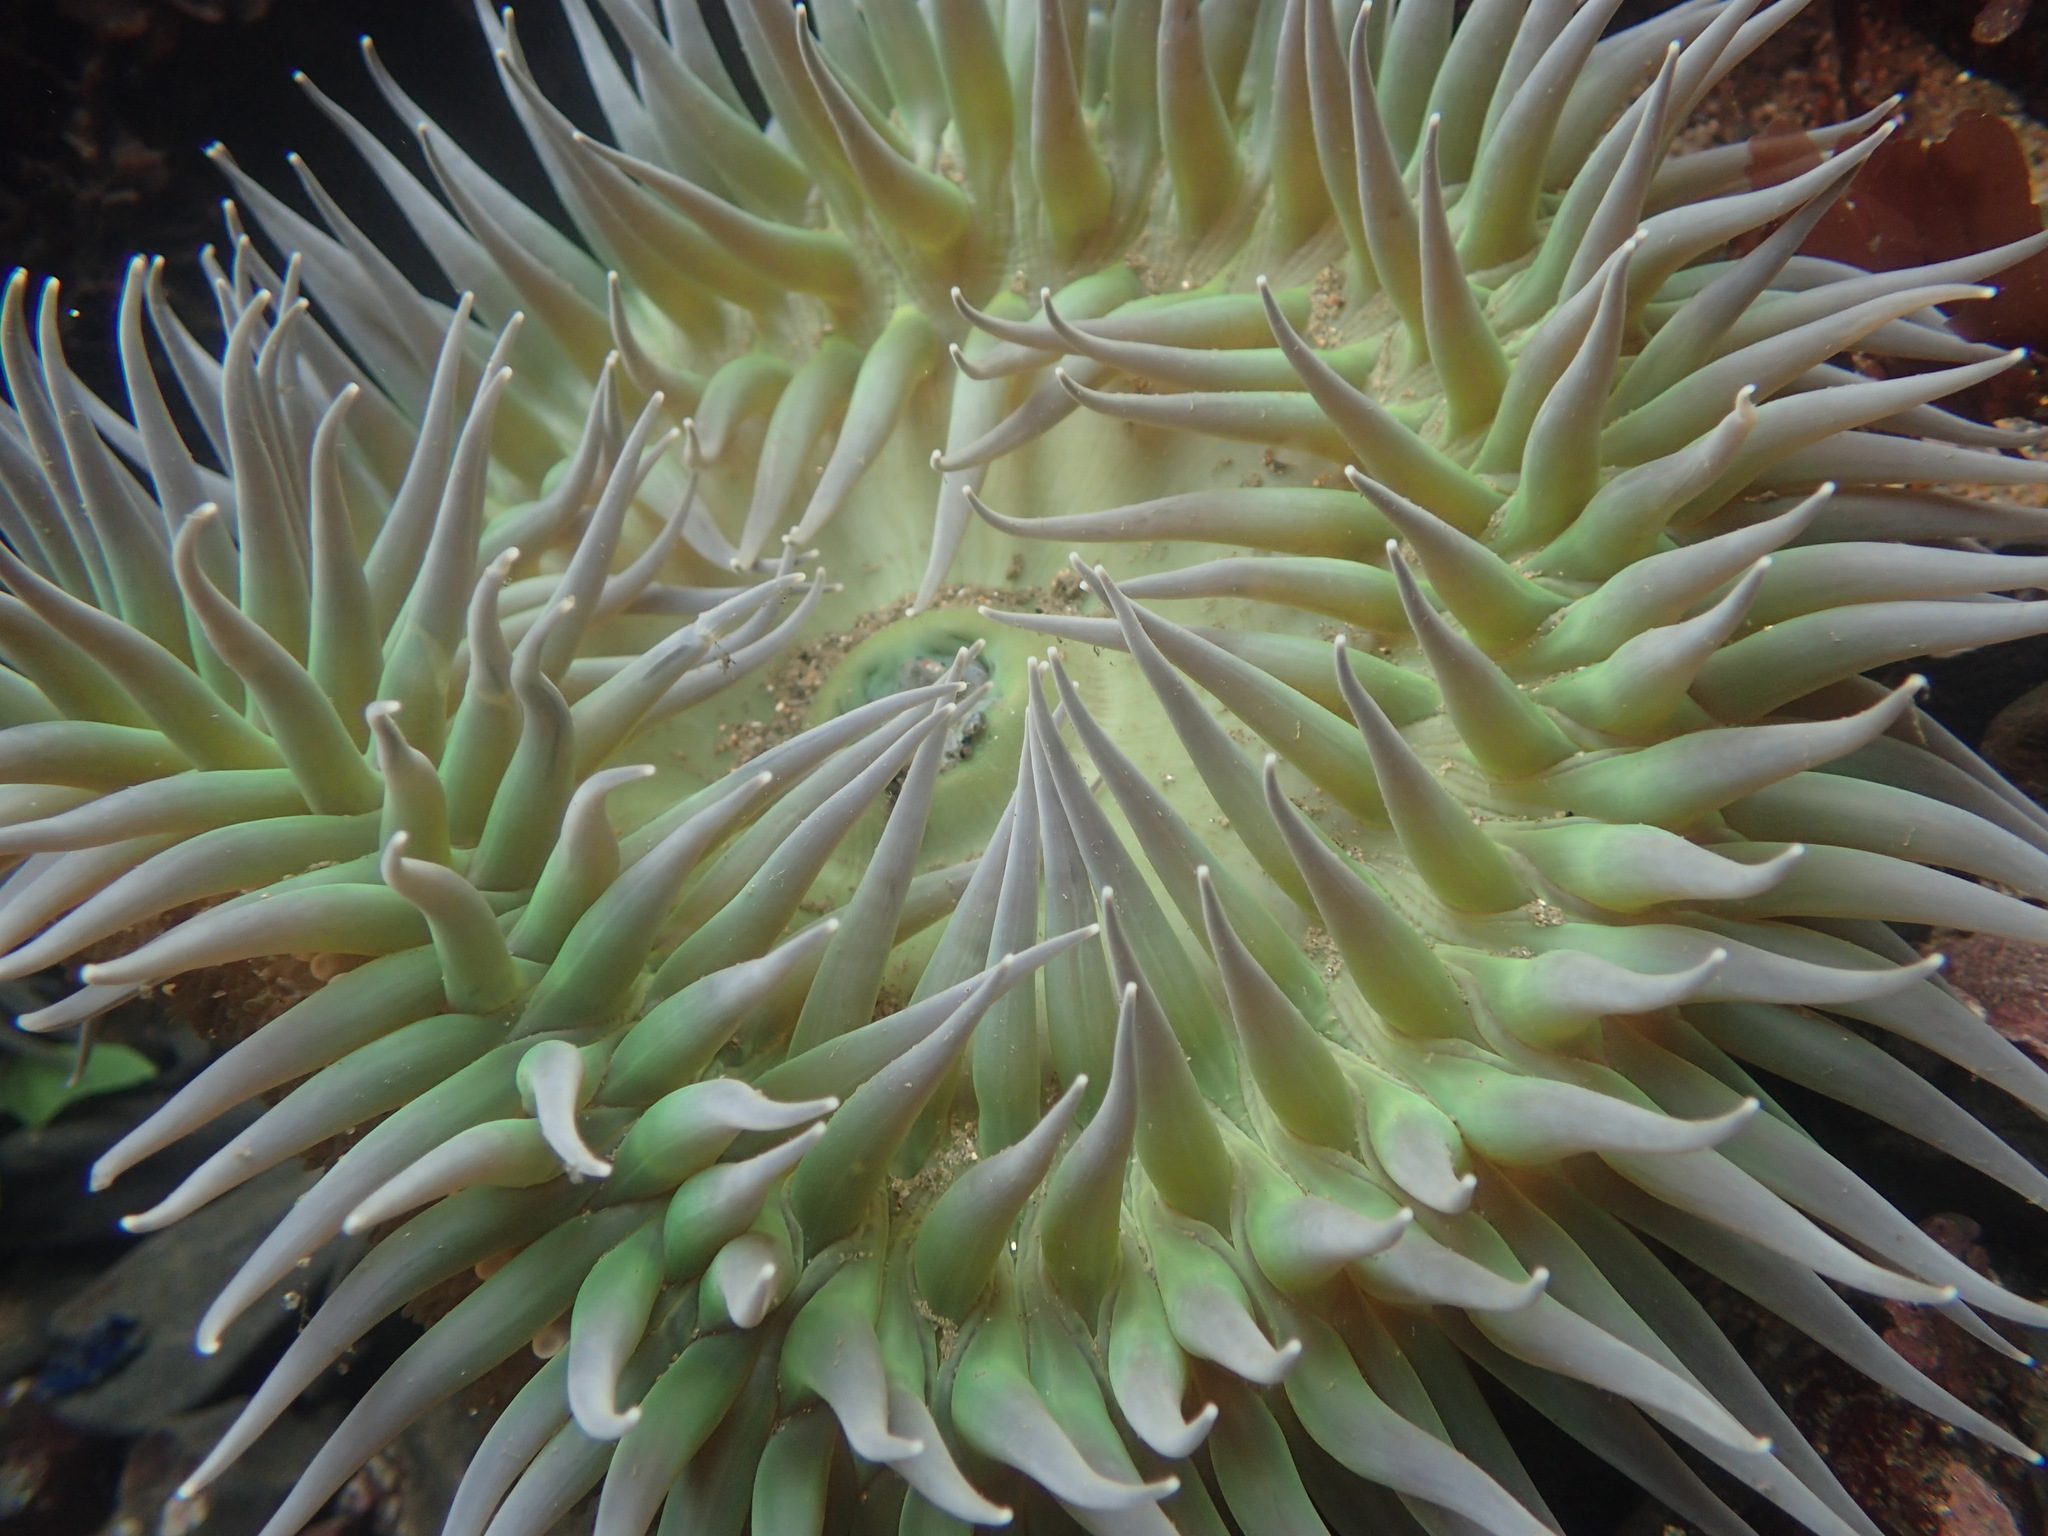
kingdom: Animalia
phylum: Cnidaria
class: Anthozoa
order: Actiniaria
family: Actiniidae
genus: Anthopleura
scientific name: Anthopleura xanthogrammica
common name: Giant green anemone
